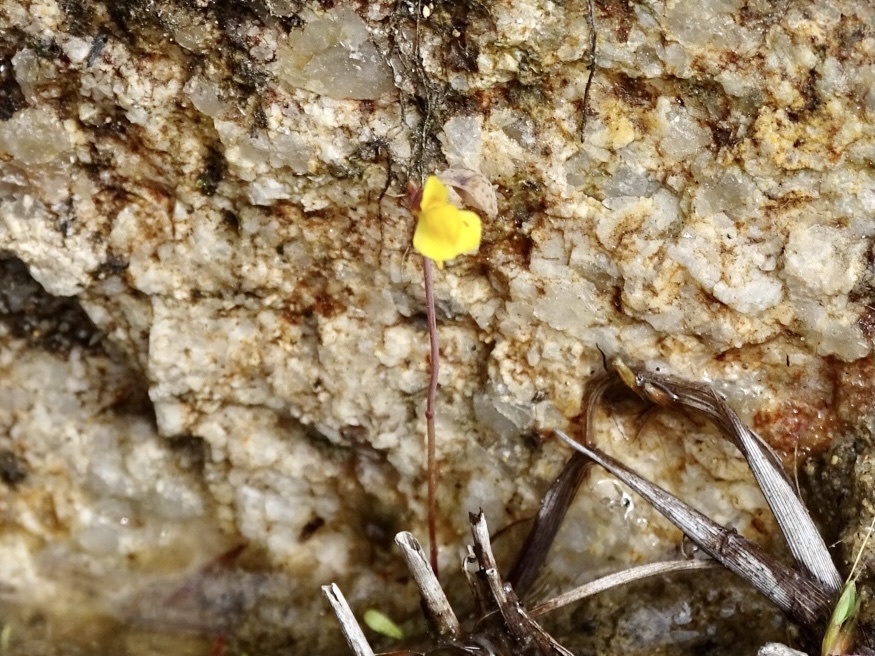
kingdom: Plantae
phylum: Tracheophyta
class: Magnoliopsida
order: Lamiales
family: Lentibulariaceae
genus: Utricularia
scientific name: Utricularia bifida
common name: Bifid bladderwort
